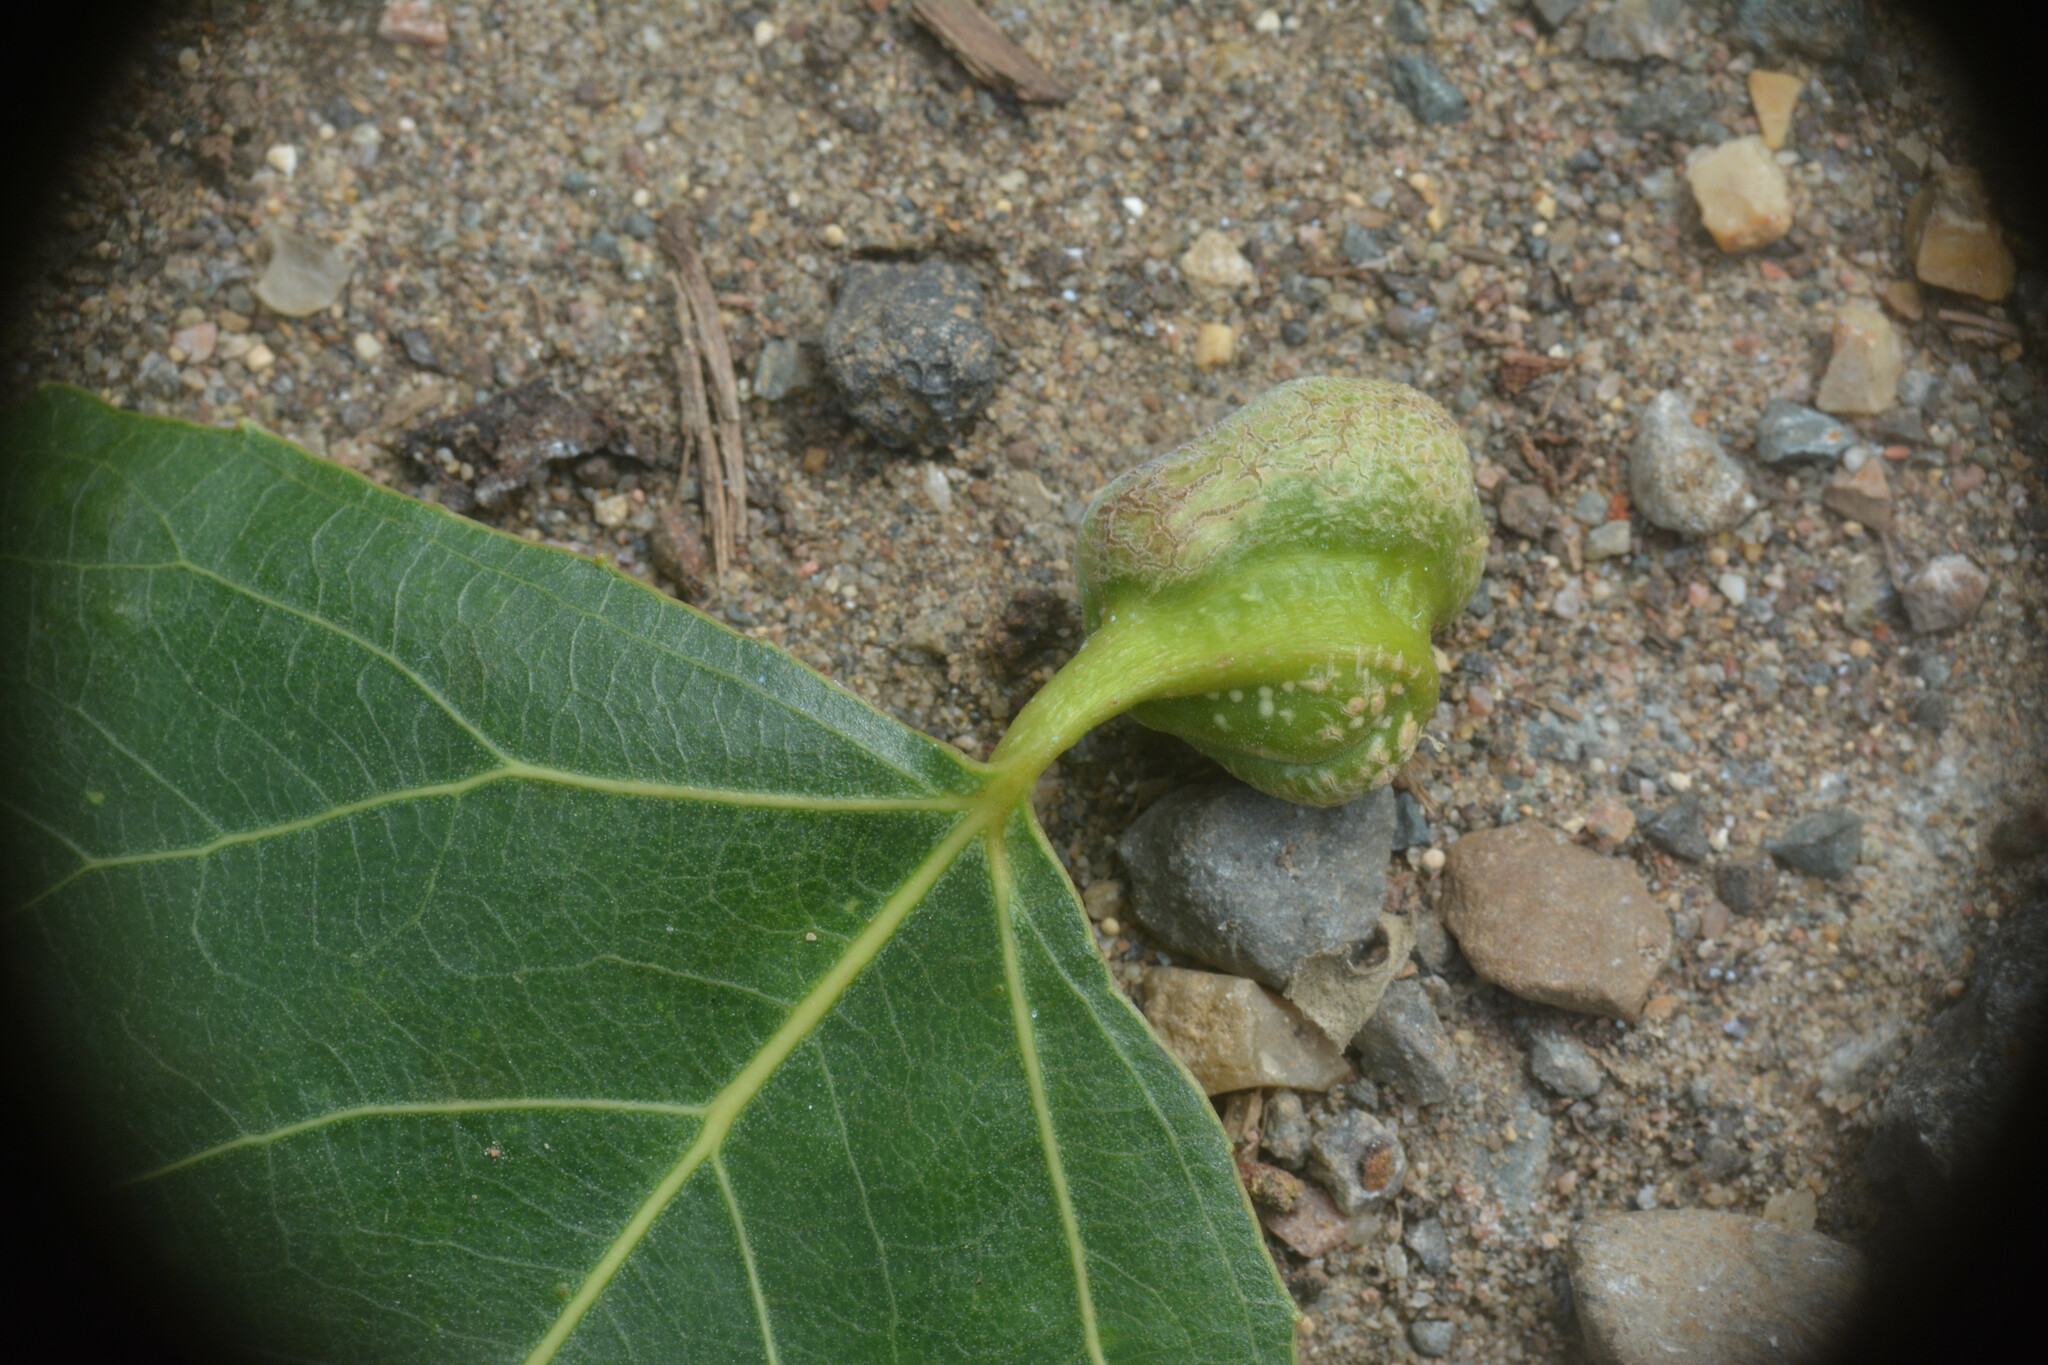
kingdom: Animalia
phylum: Arthropoda
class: Insecta
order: Hemiptera
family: Aphididae
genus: Pemphigus
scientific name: Pemphigus spyrothecae
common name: Aphid
